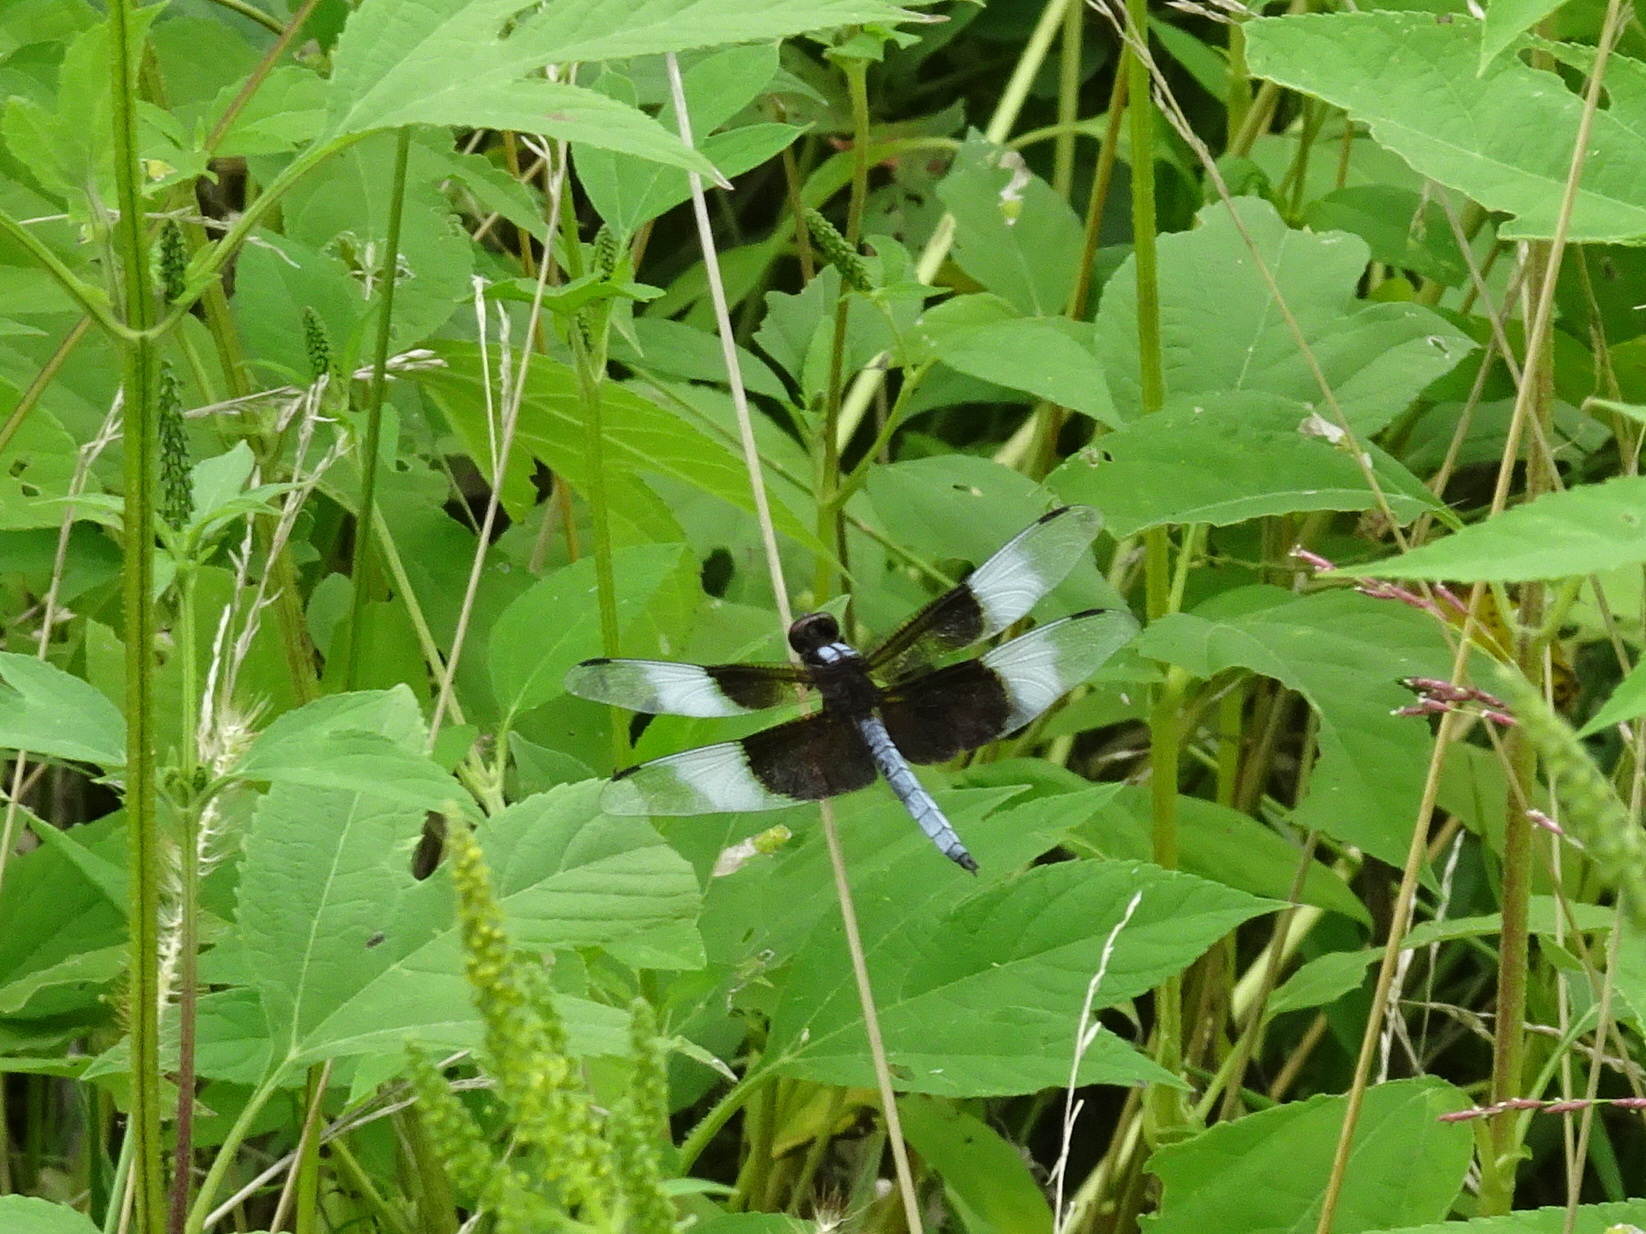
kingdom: Animalia
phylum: Arthropoda
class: Insecta
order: Odonata
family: Libellulidae
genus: Libellula
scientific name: Libellula luctuosa
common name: Widow skimmer
